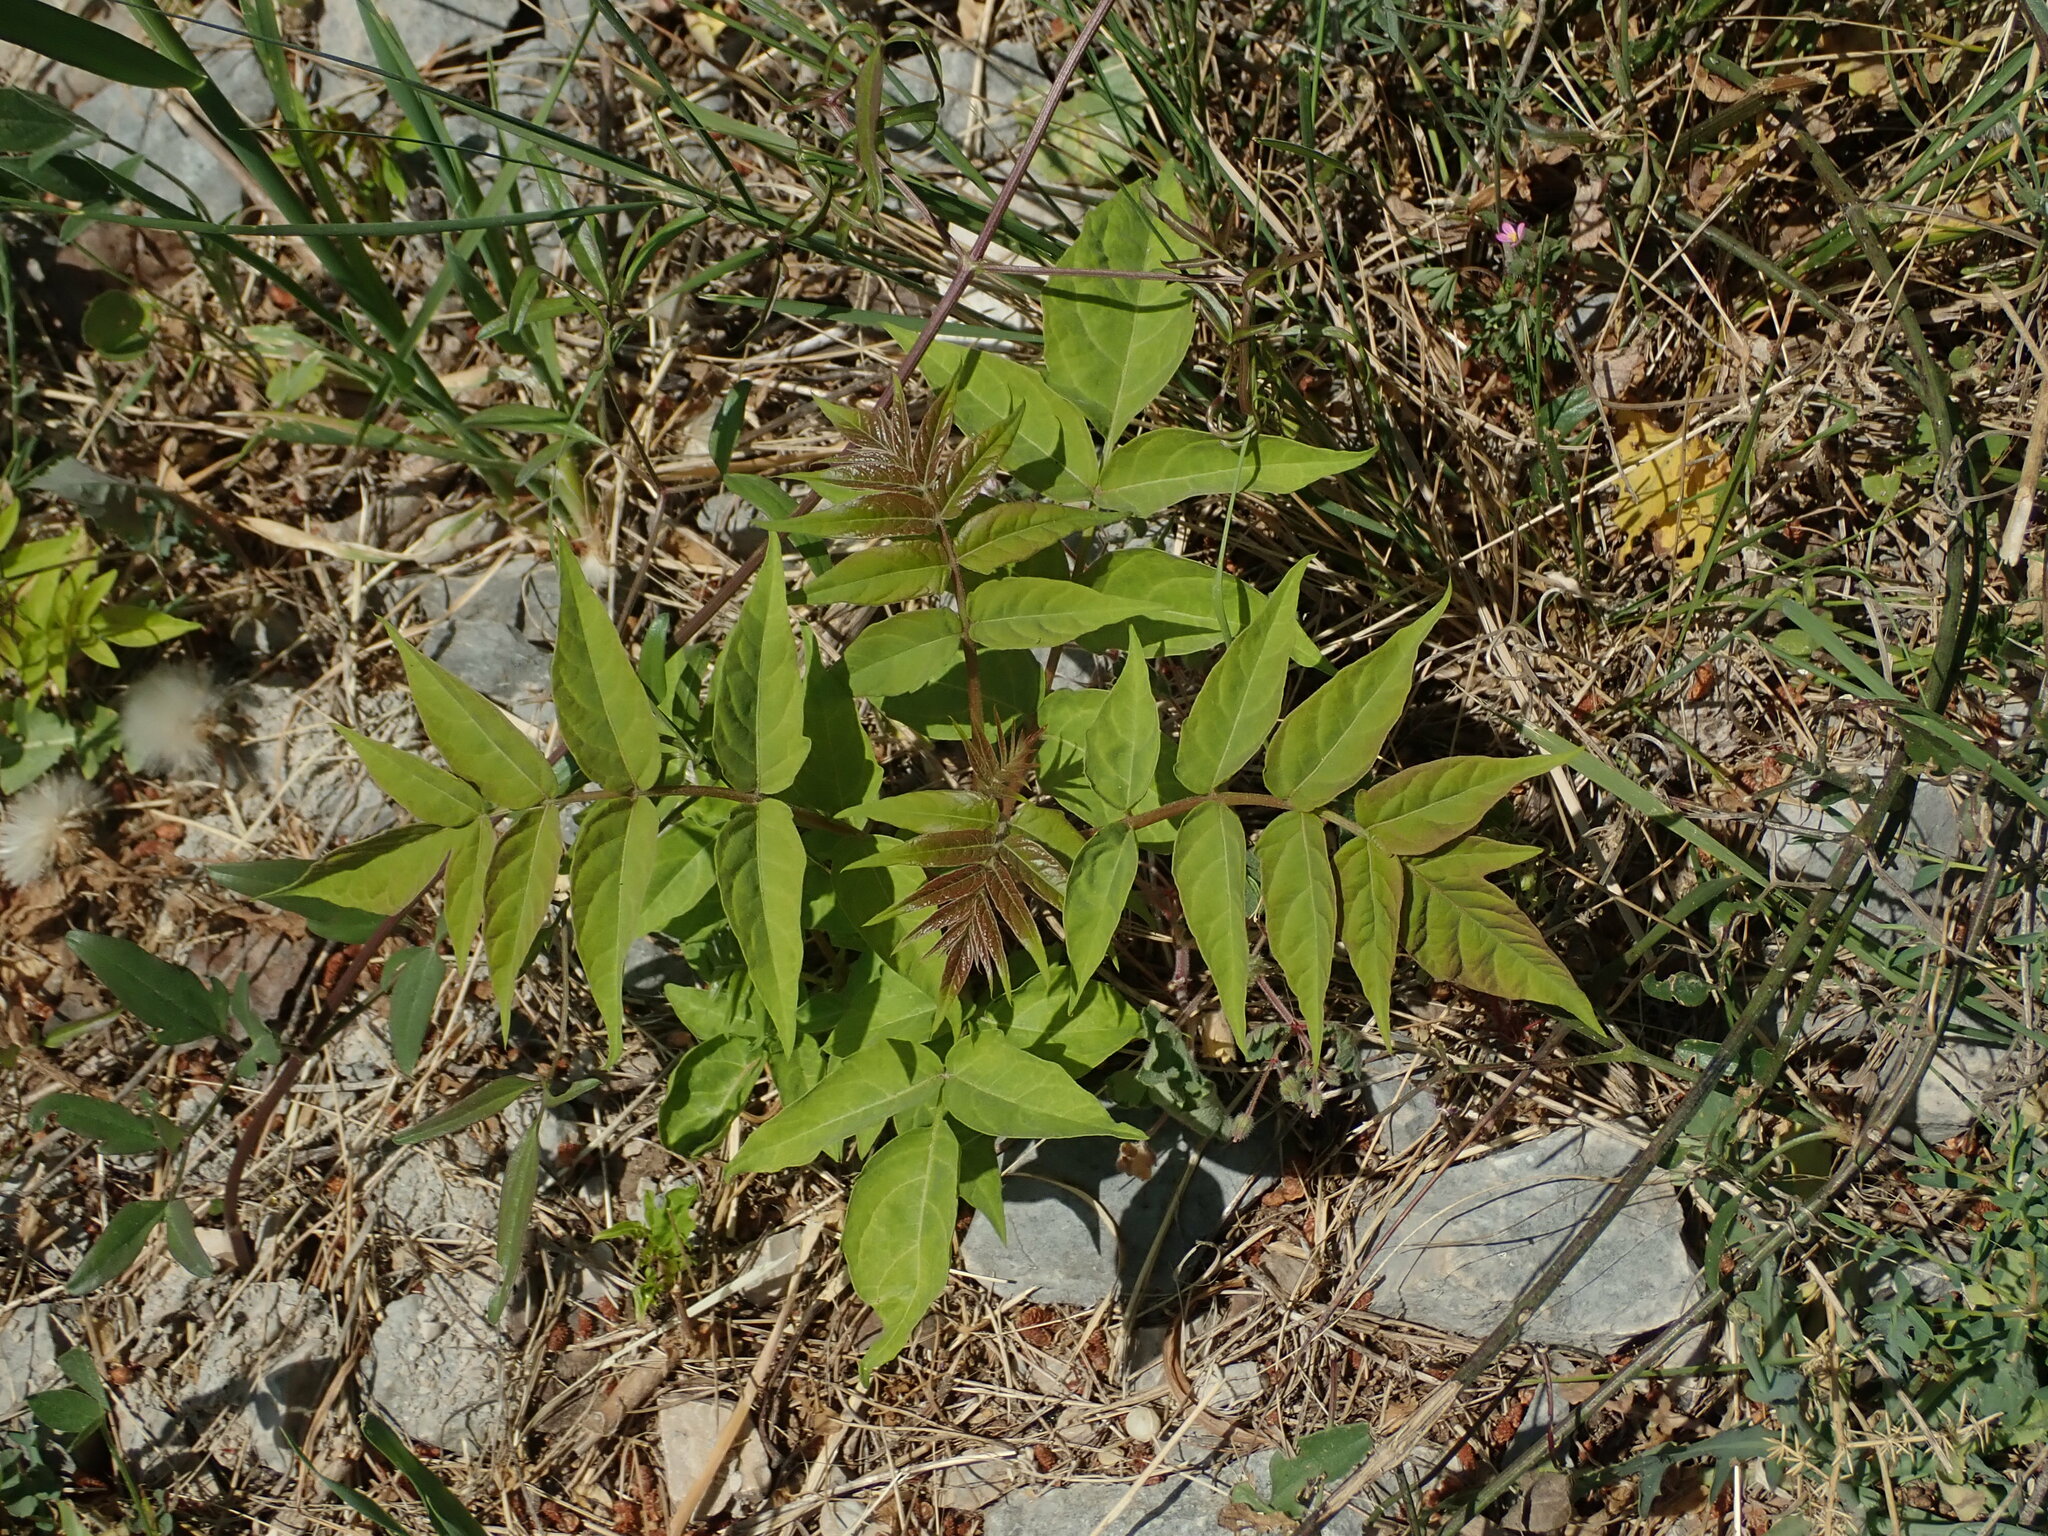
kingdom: Plantae
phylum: Tracheophyta
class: Magnoliopsida
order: Sapindales
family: Simaroubaceae
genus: Ailanthus
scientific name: Ailanthus altissima
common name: Tree-of-heaven
